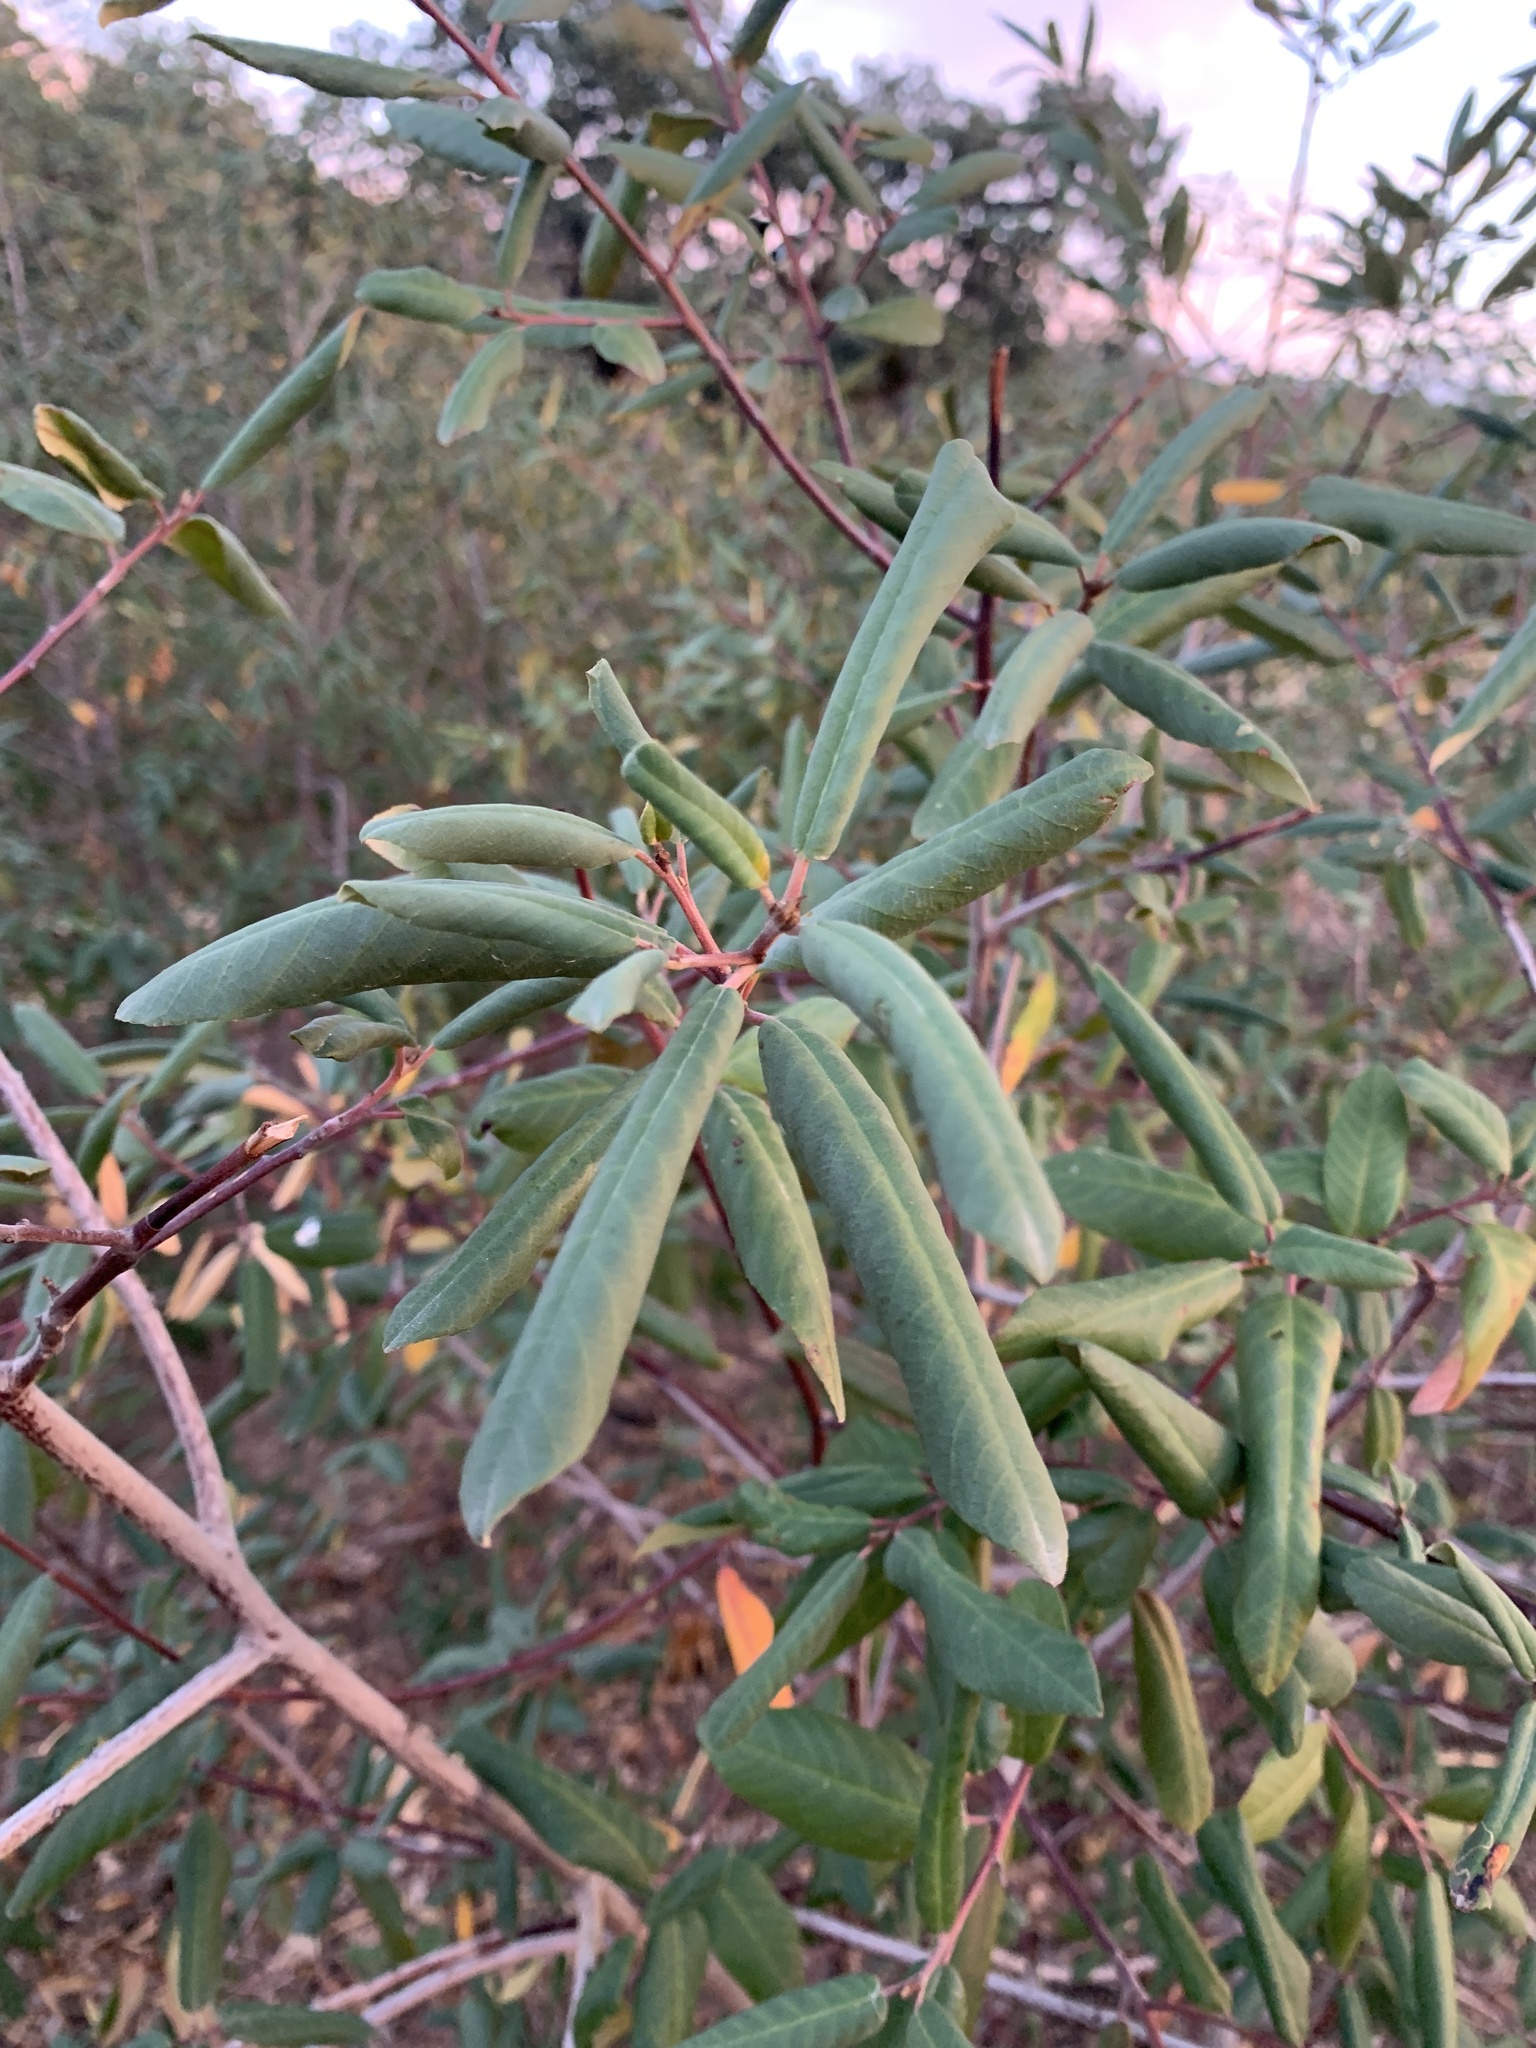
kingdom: Plantae
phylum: Tracheophyta
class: Magnoliopsida
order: Rosales
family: Rhamnaceae
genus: Frangula
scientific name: Frangula californica
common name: California buckthorn
